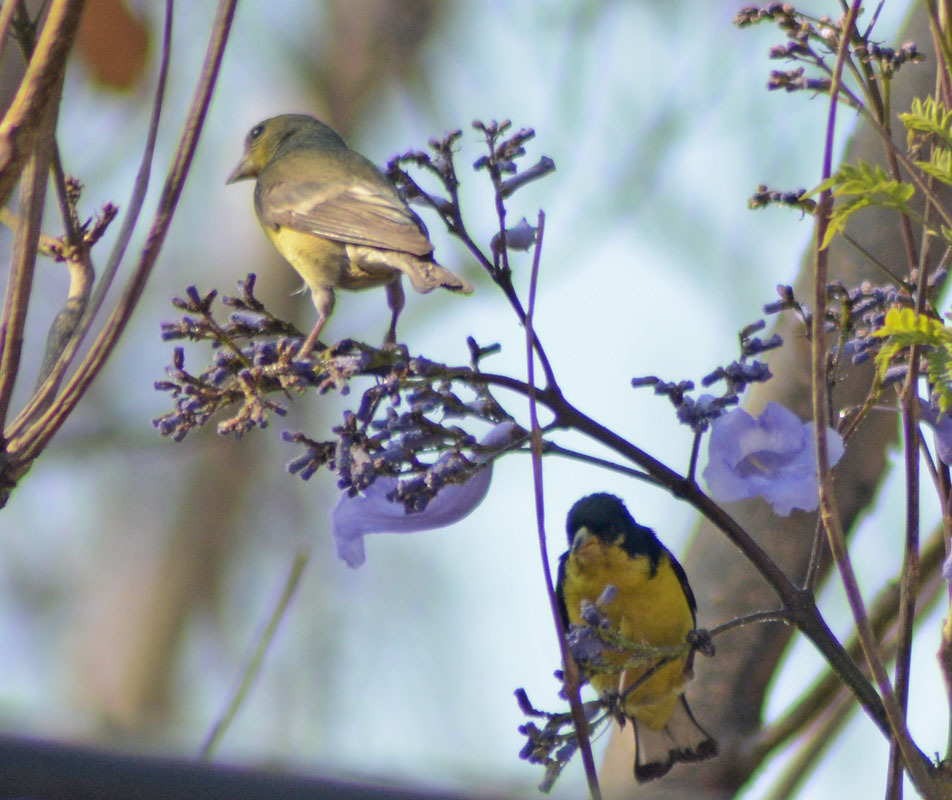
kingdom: Animalia
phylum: Chordata
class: Aves
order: Passeriformes
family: Fringillidae
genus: Spinus
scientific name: Spinus psaltria
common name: Lesser goldfinch
